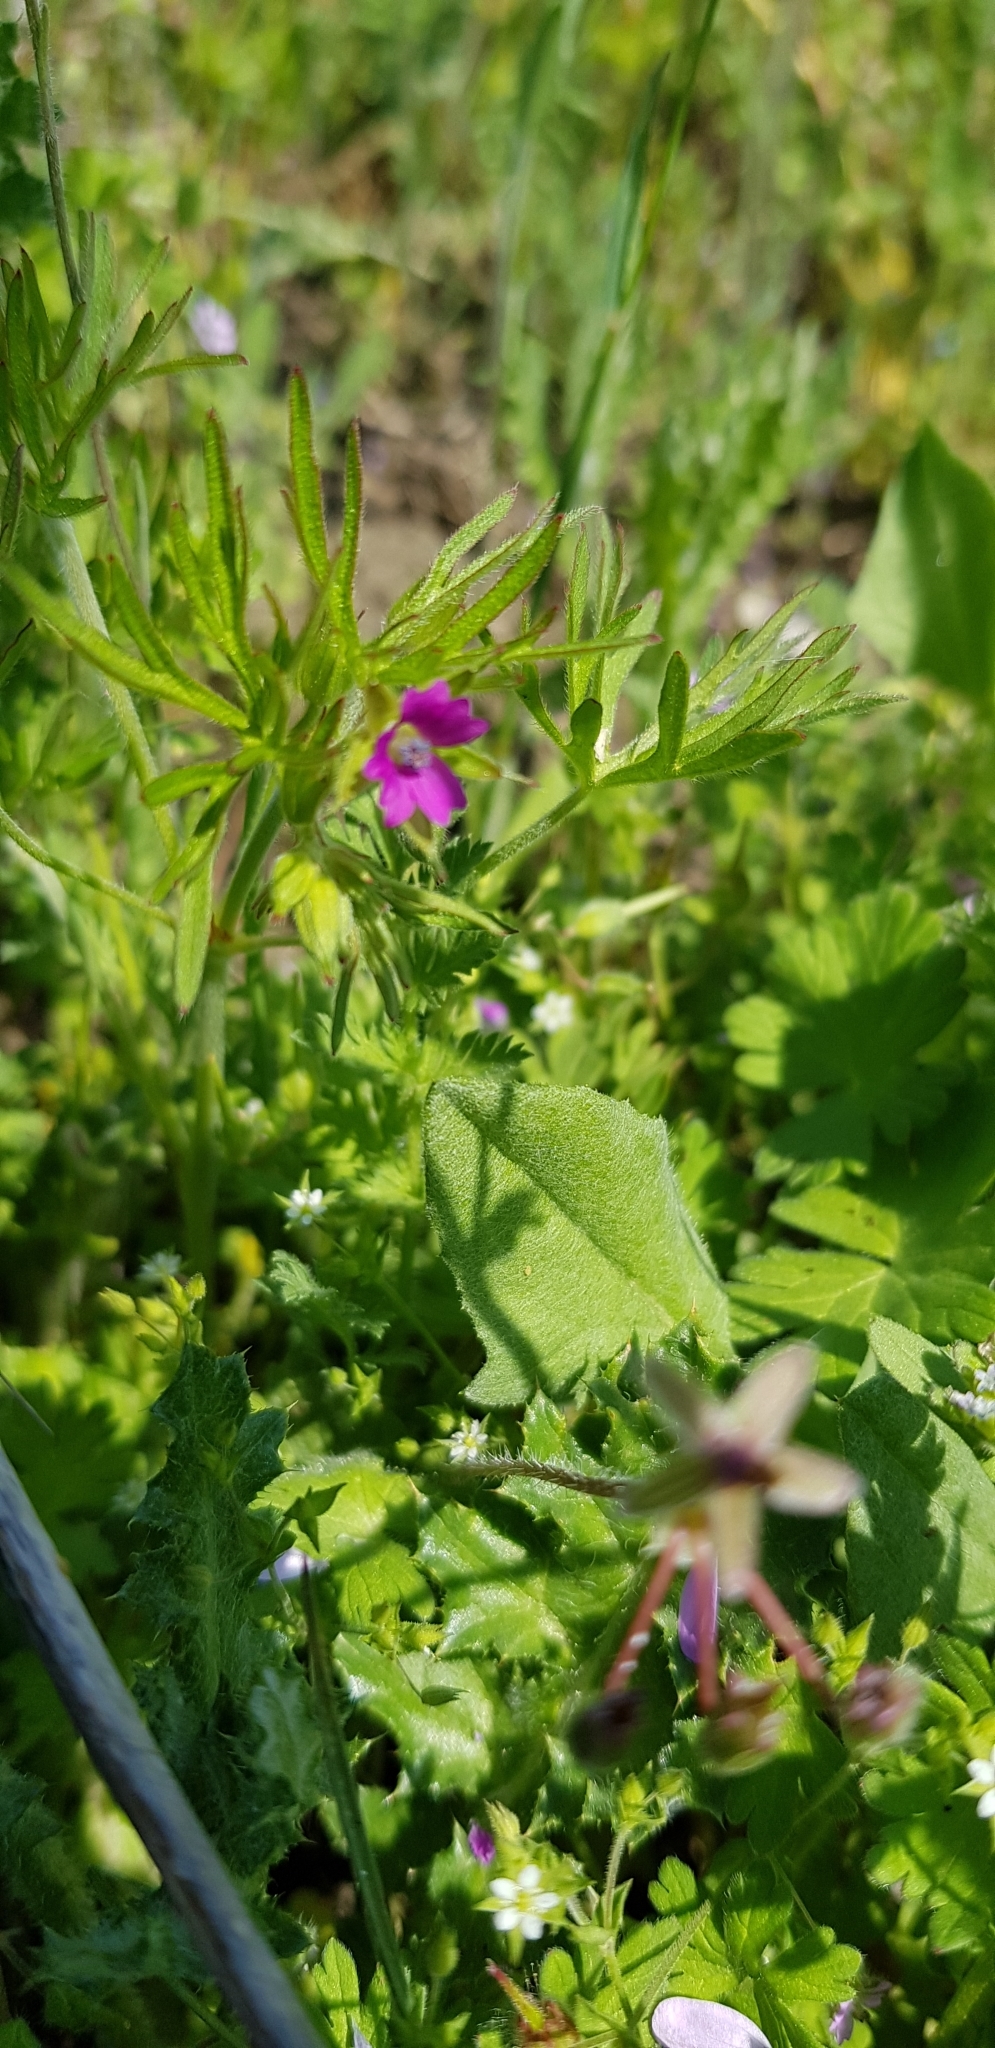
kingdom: Plantae
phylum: Tracheophyta
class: Magnoliopsida
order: Geraniales
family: Geraniaceae
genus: Geranium
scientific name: Geranium dissectum
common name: Cut-leaved crane's-bill
